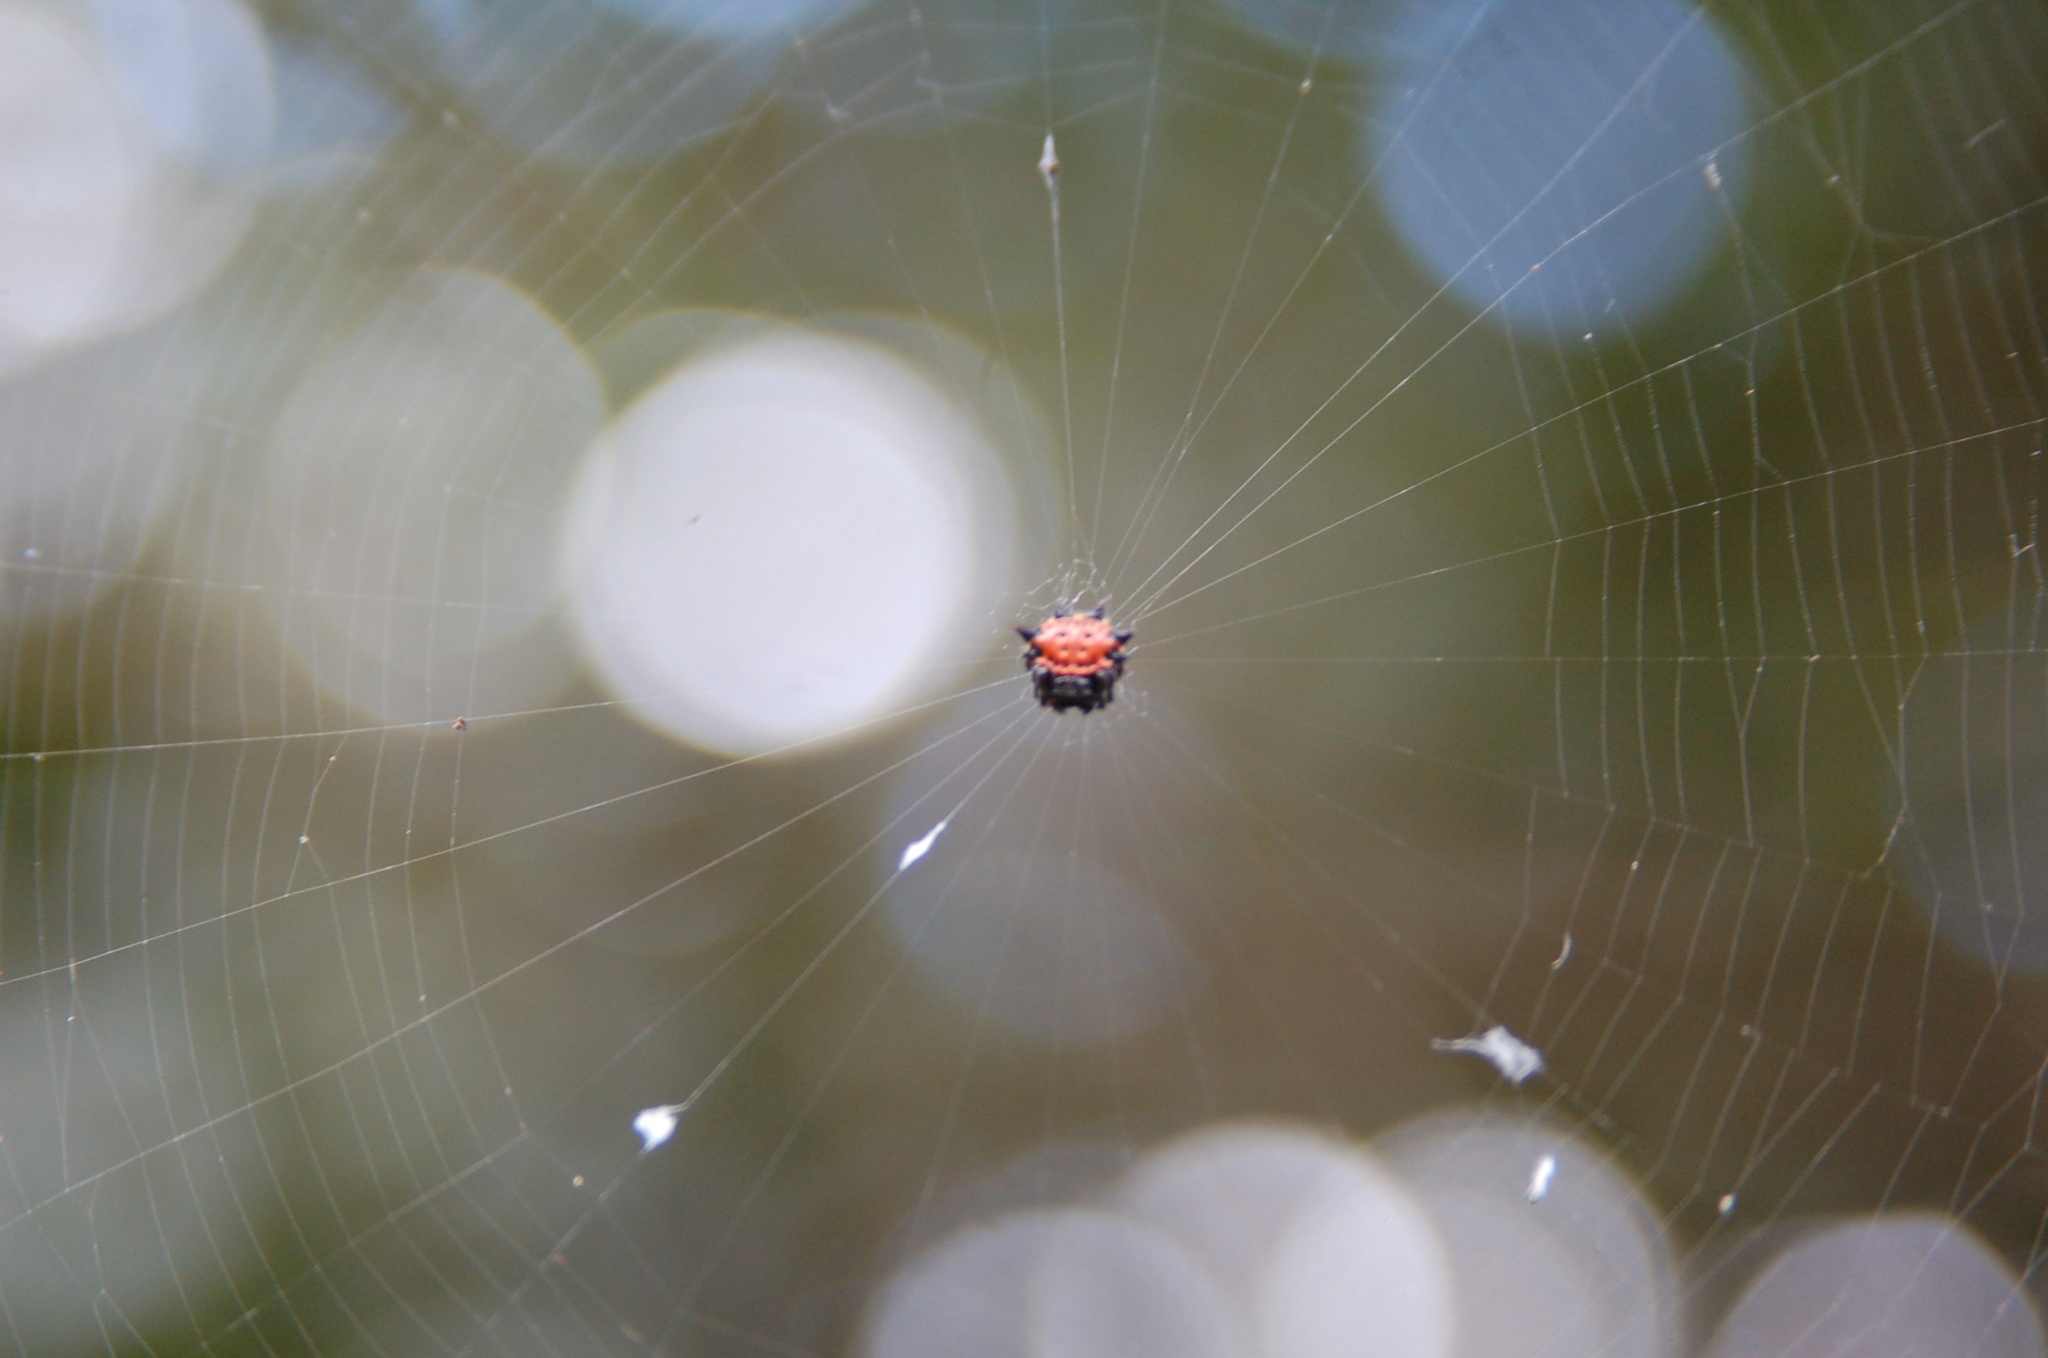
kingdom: Animalia
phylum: Arthropoda
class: Arachnida
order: Araneae
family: Araneidae
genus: Gasteracantha
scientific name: Gasteracantha cancriformis
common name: Orb weavers
